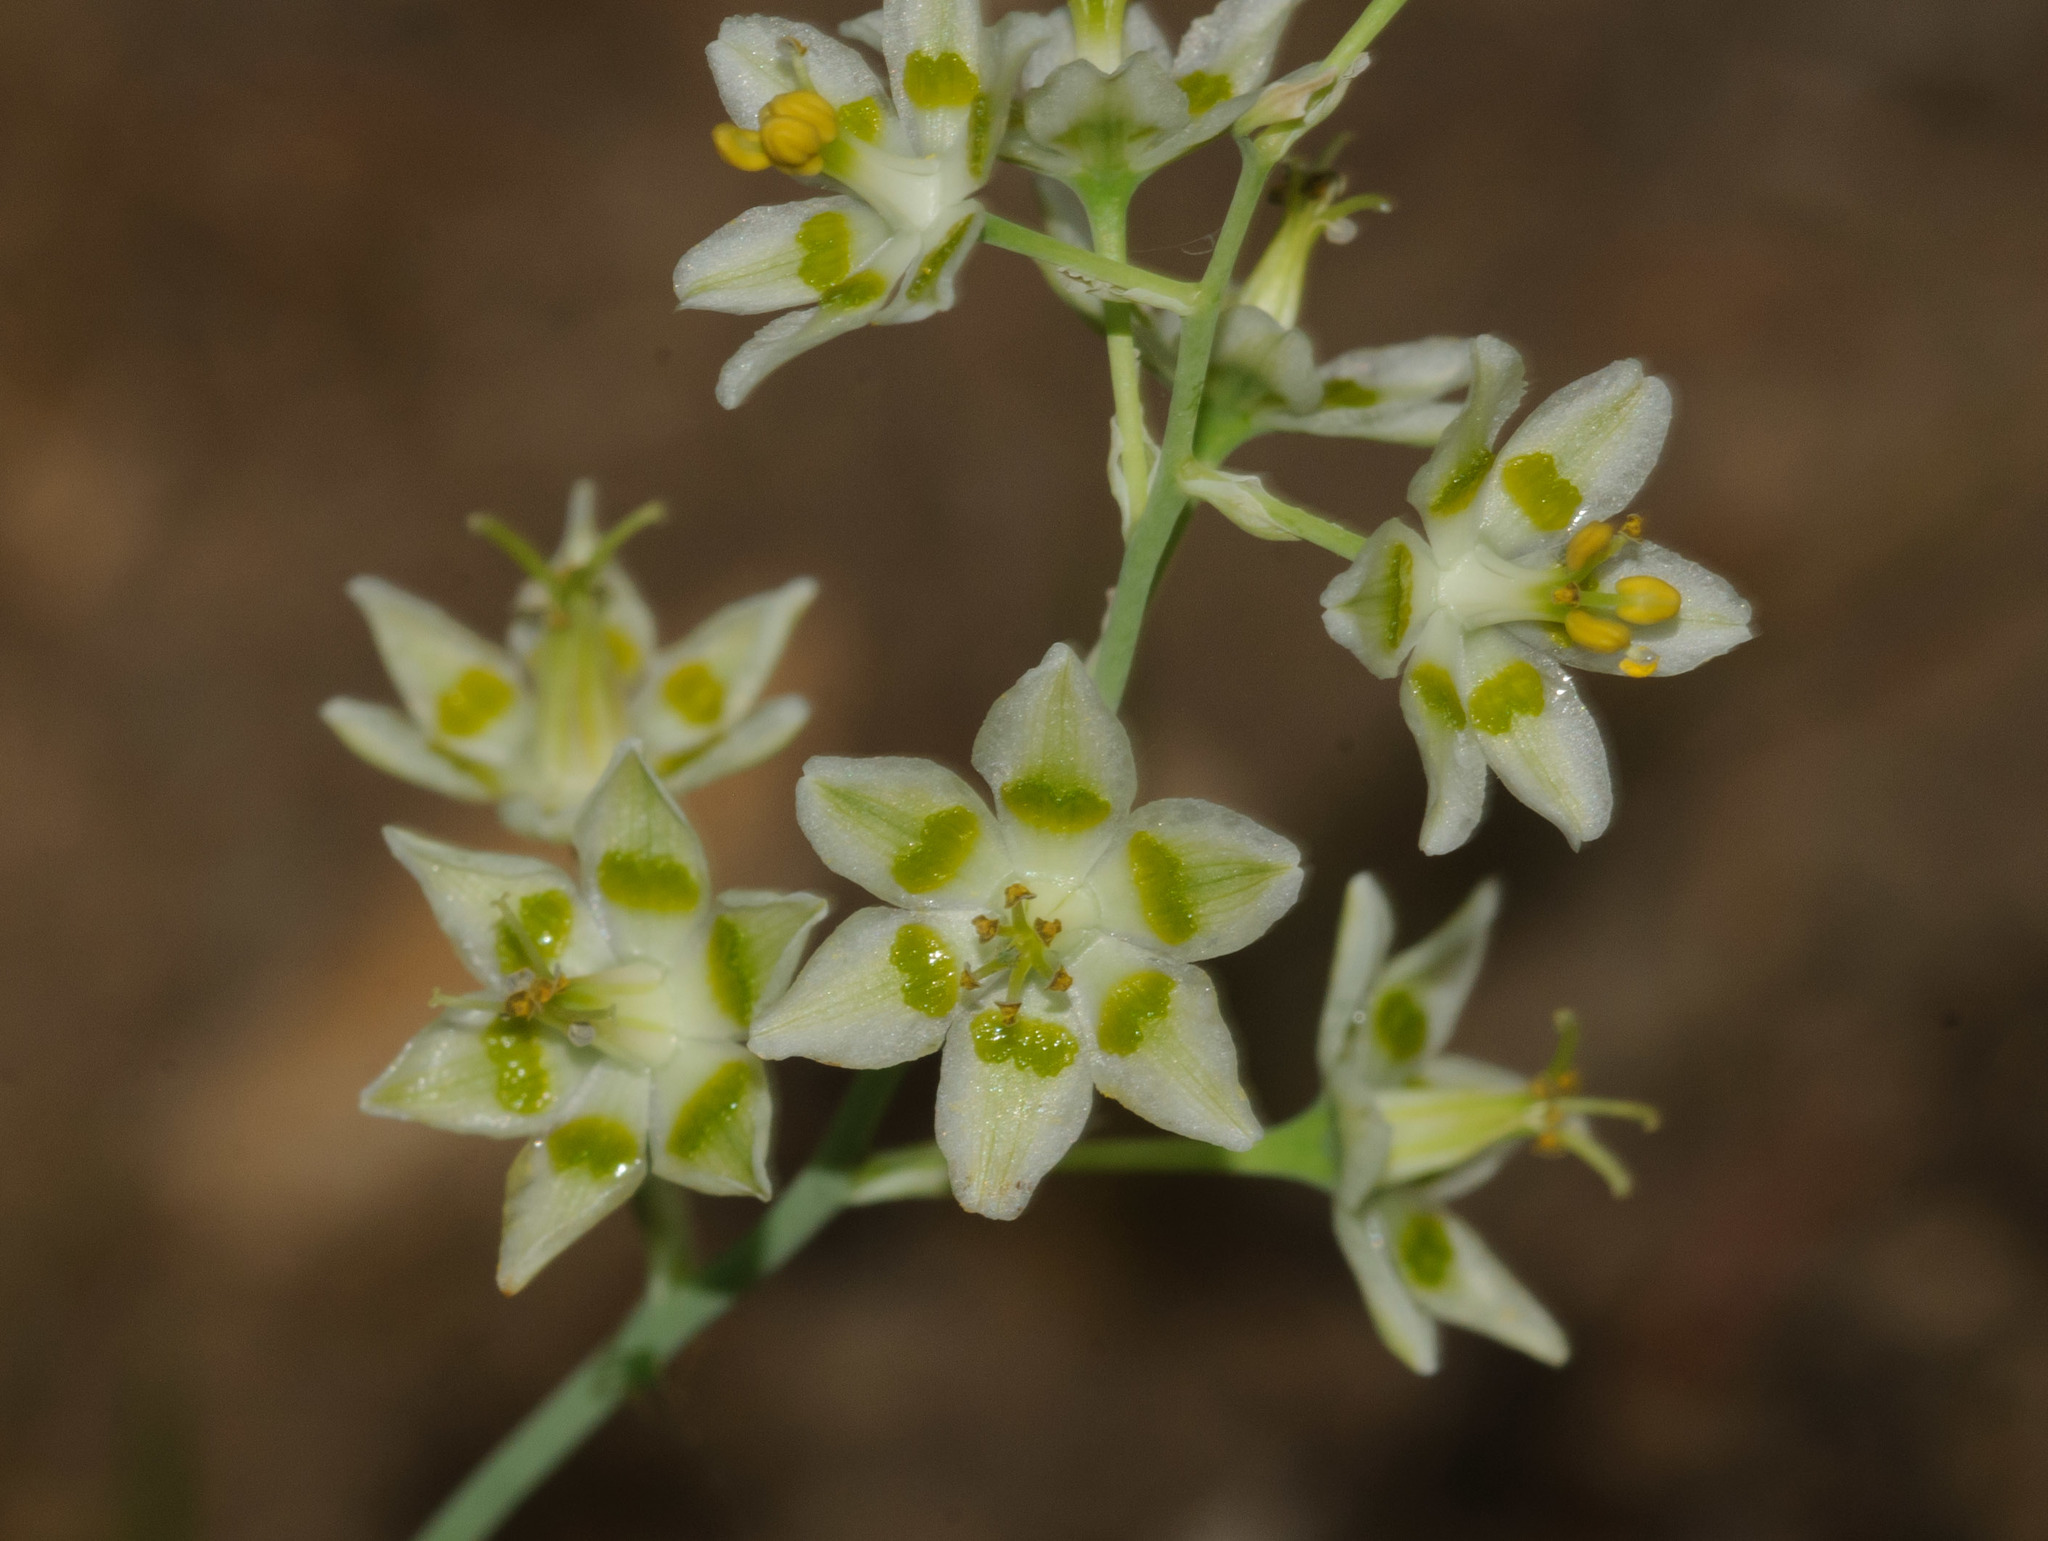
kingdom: Plantae
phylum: Tracheophyta
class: Liliopsida
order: Liliales
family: Melanthiaceae
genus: Anticlea
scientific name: Anticlea elegans
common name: Mountain death camas
